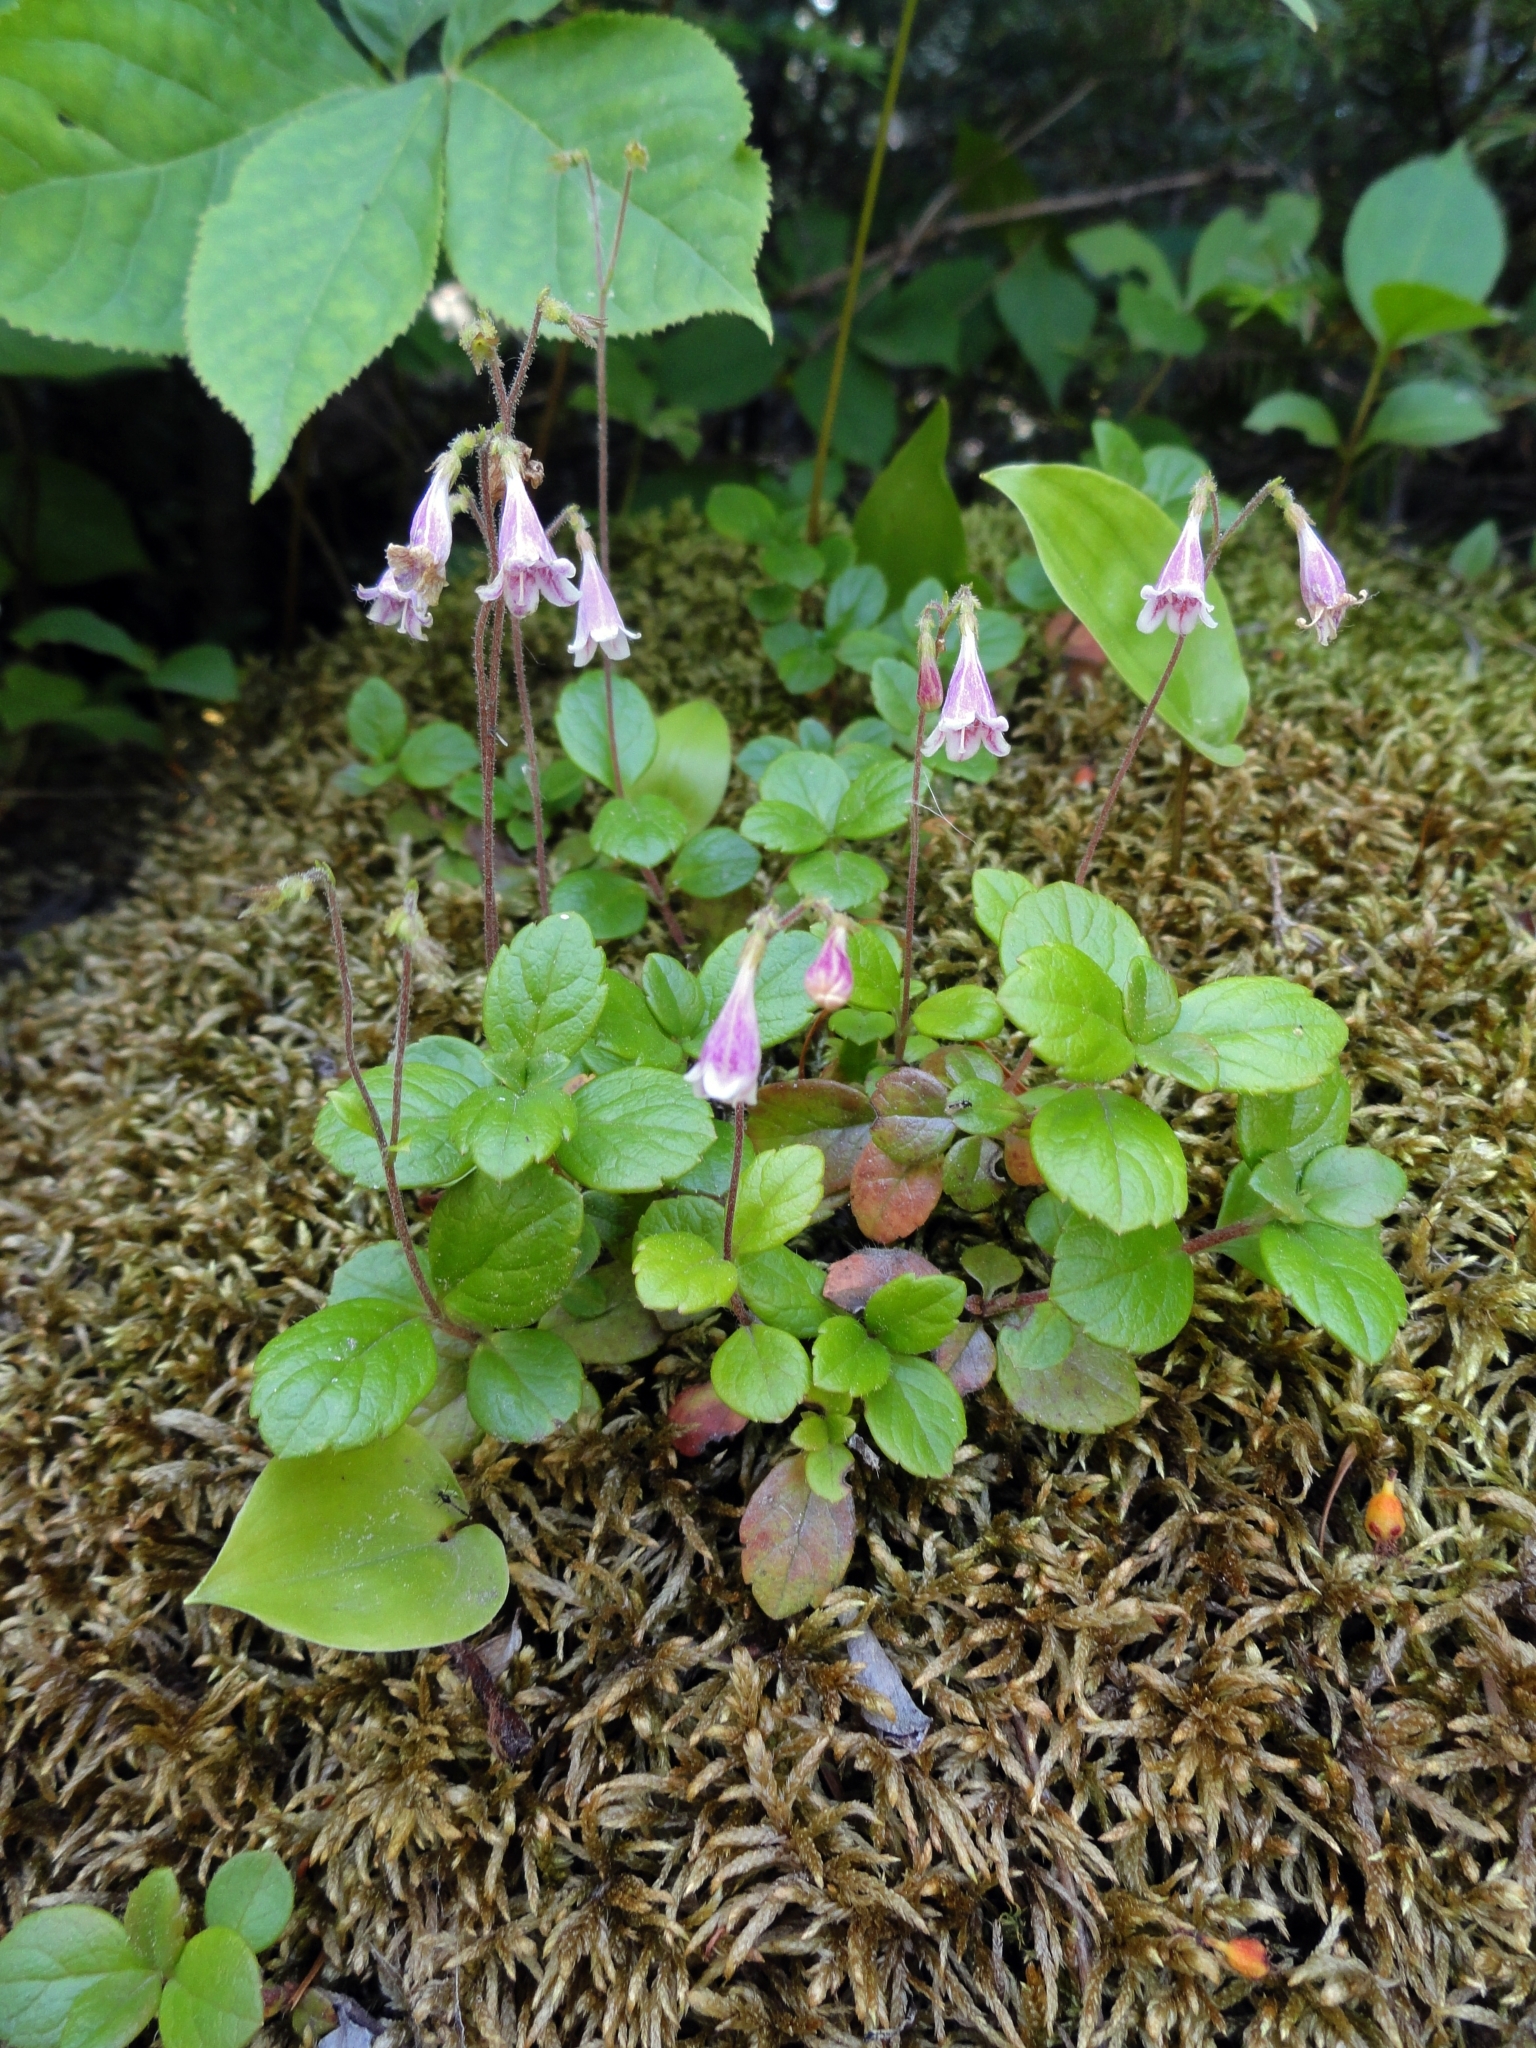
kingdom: Plantae
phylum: Tracheophyta
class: Magnoliopsida
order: Dipsacales
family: Caprifoliaceae
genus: Linnaea
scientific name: Linnaea borealis
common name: Twinflower
